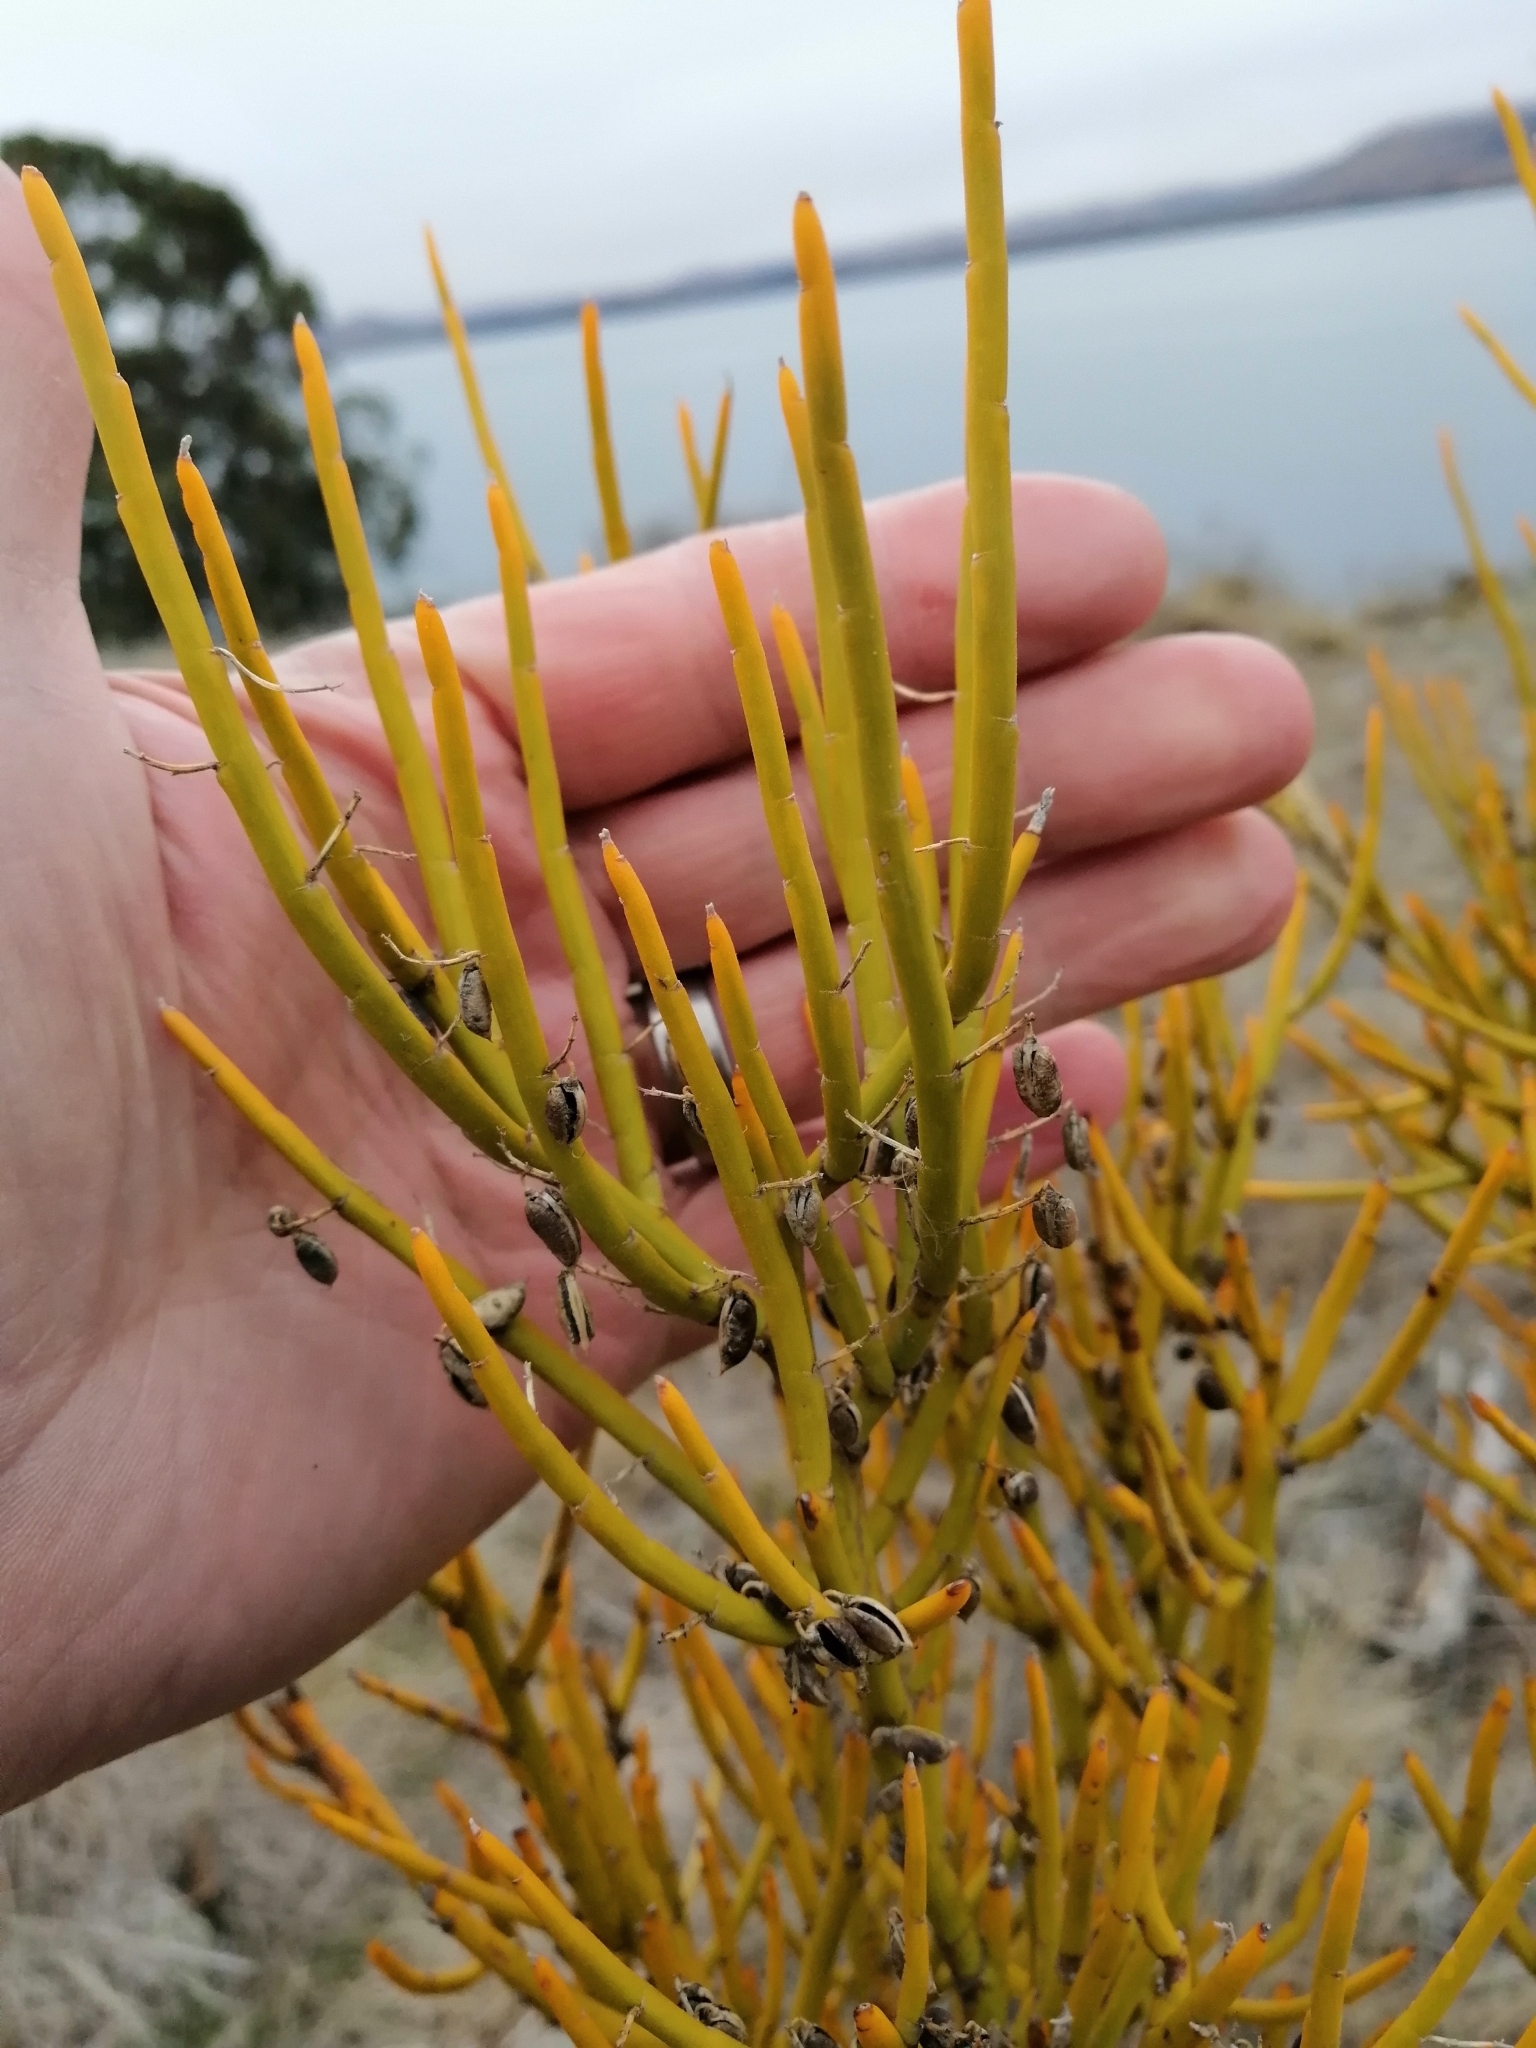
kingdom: Plantae
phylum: Tracheophyta
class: Magnoliopsida
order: Fabales
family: Fabaceae
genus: Carmichaelia
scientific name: Carmichaelia petriei
